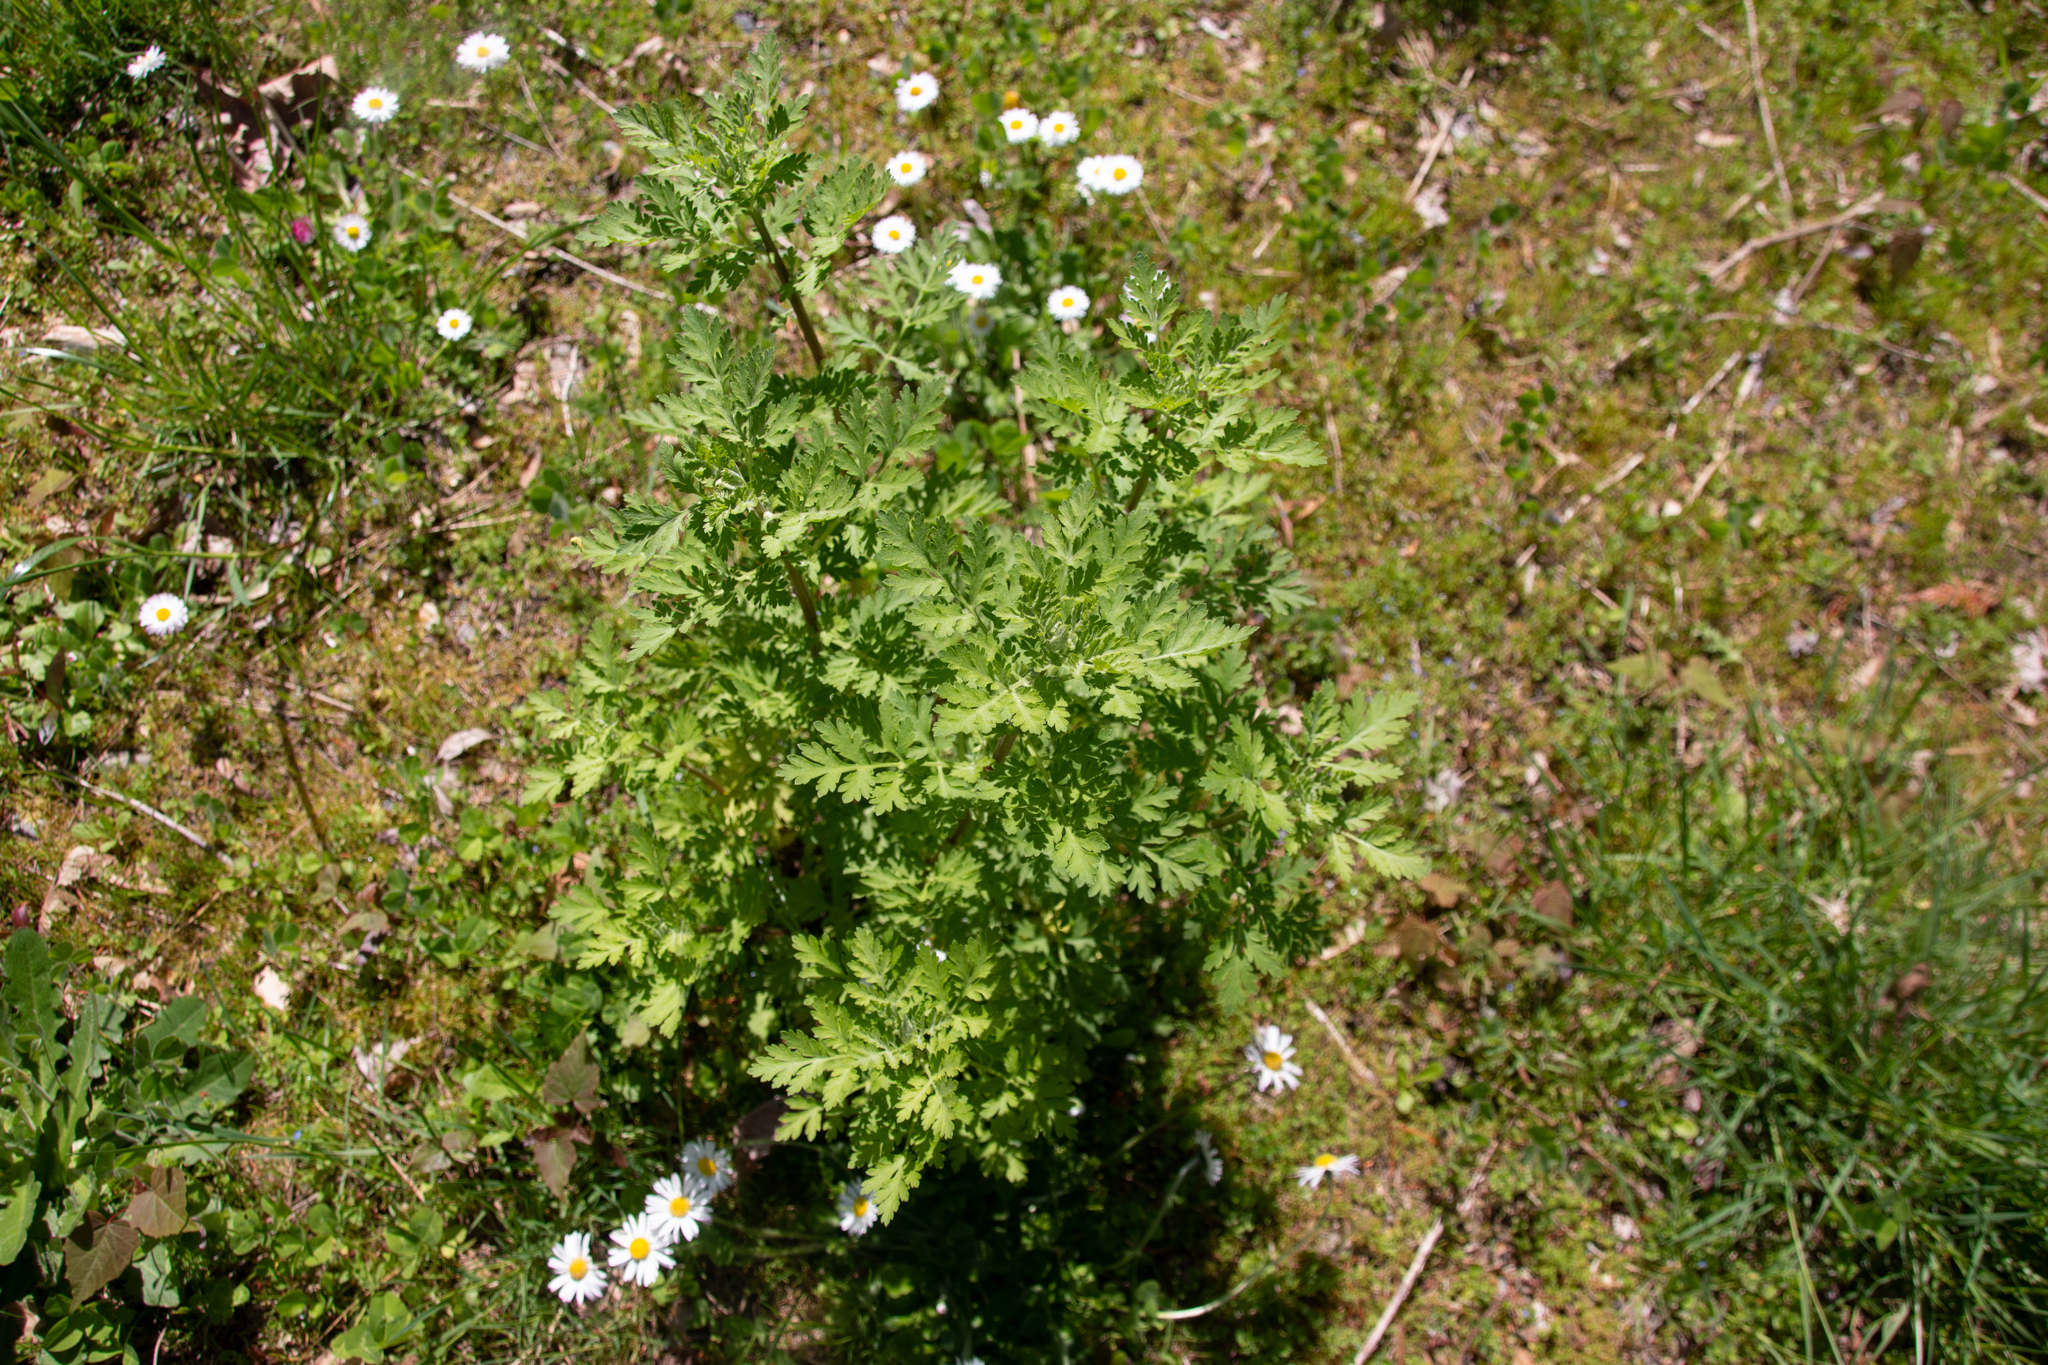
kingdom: Plantae
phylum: Tracheophyta
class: Magnoliopsida
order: Asterales
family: Asteraceae
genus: Tanacetum
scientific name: Tanacetum parthenium
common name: Feverfew
